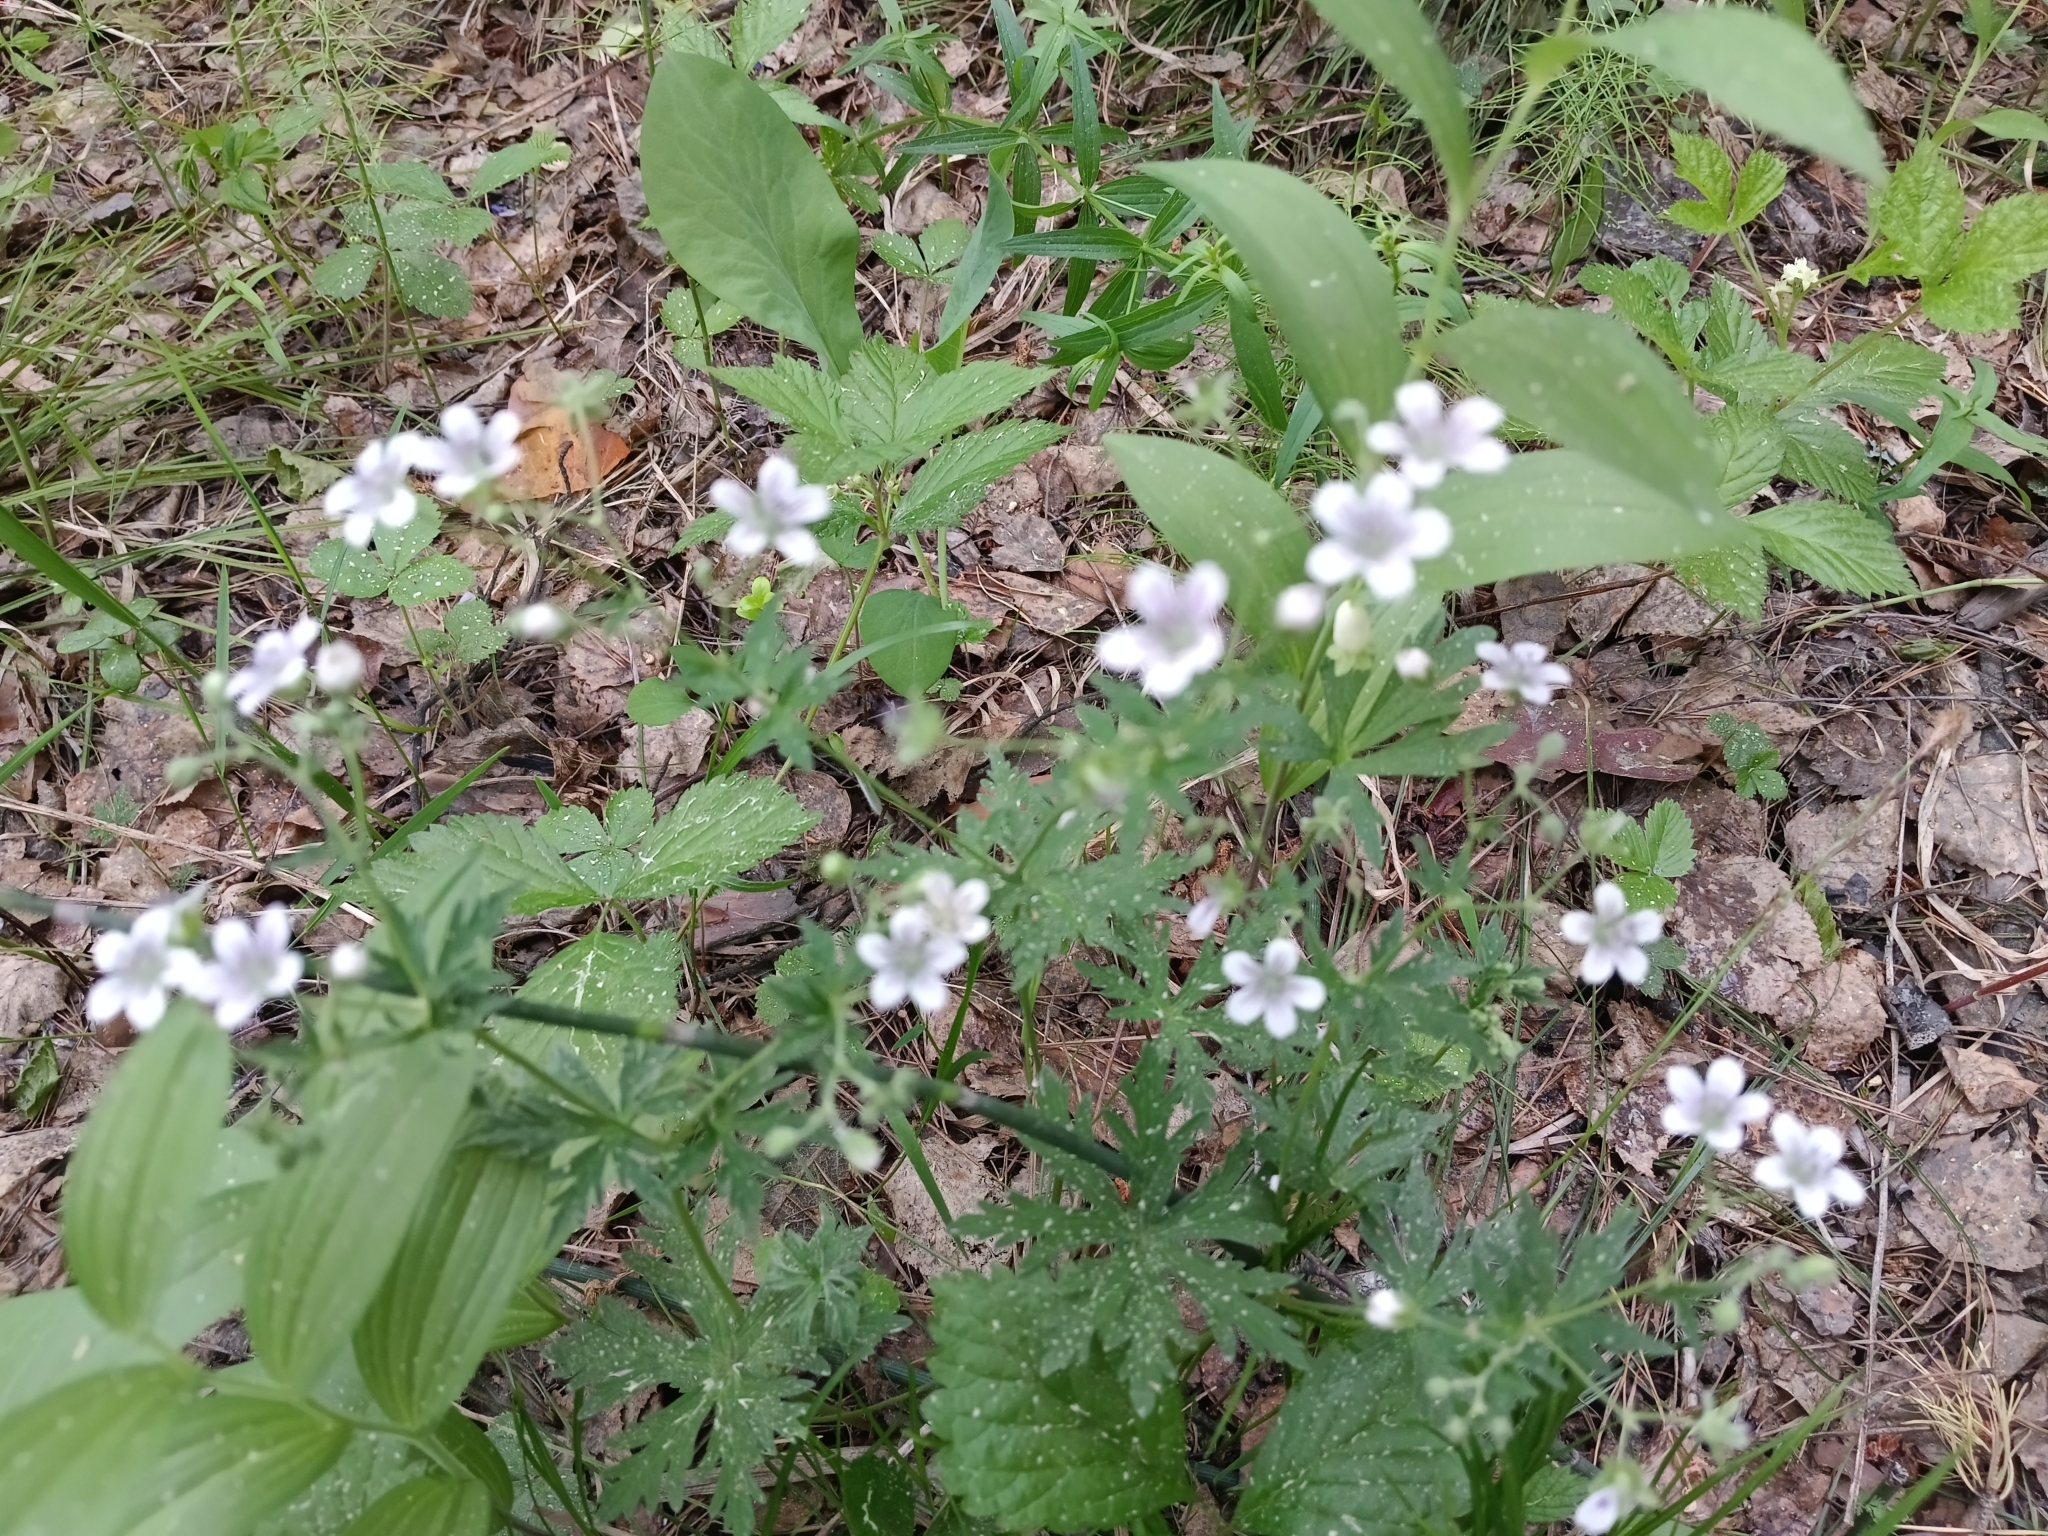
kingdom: Plantae
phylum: Tracheophyta
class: Magnoliopsida
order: Geraniales
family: Geraniaceae
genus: Geranium
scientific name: Geranium pseudosibiricum
